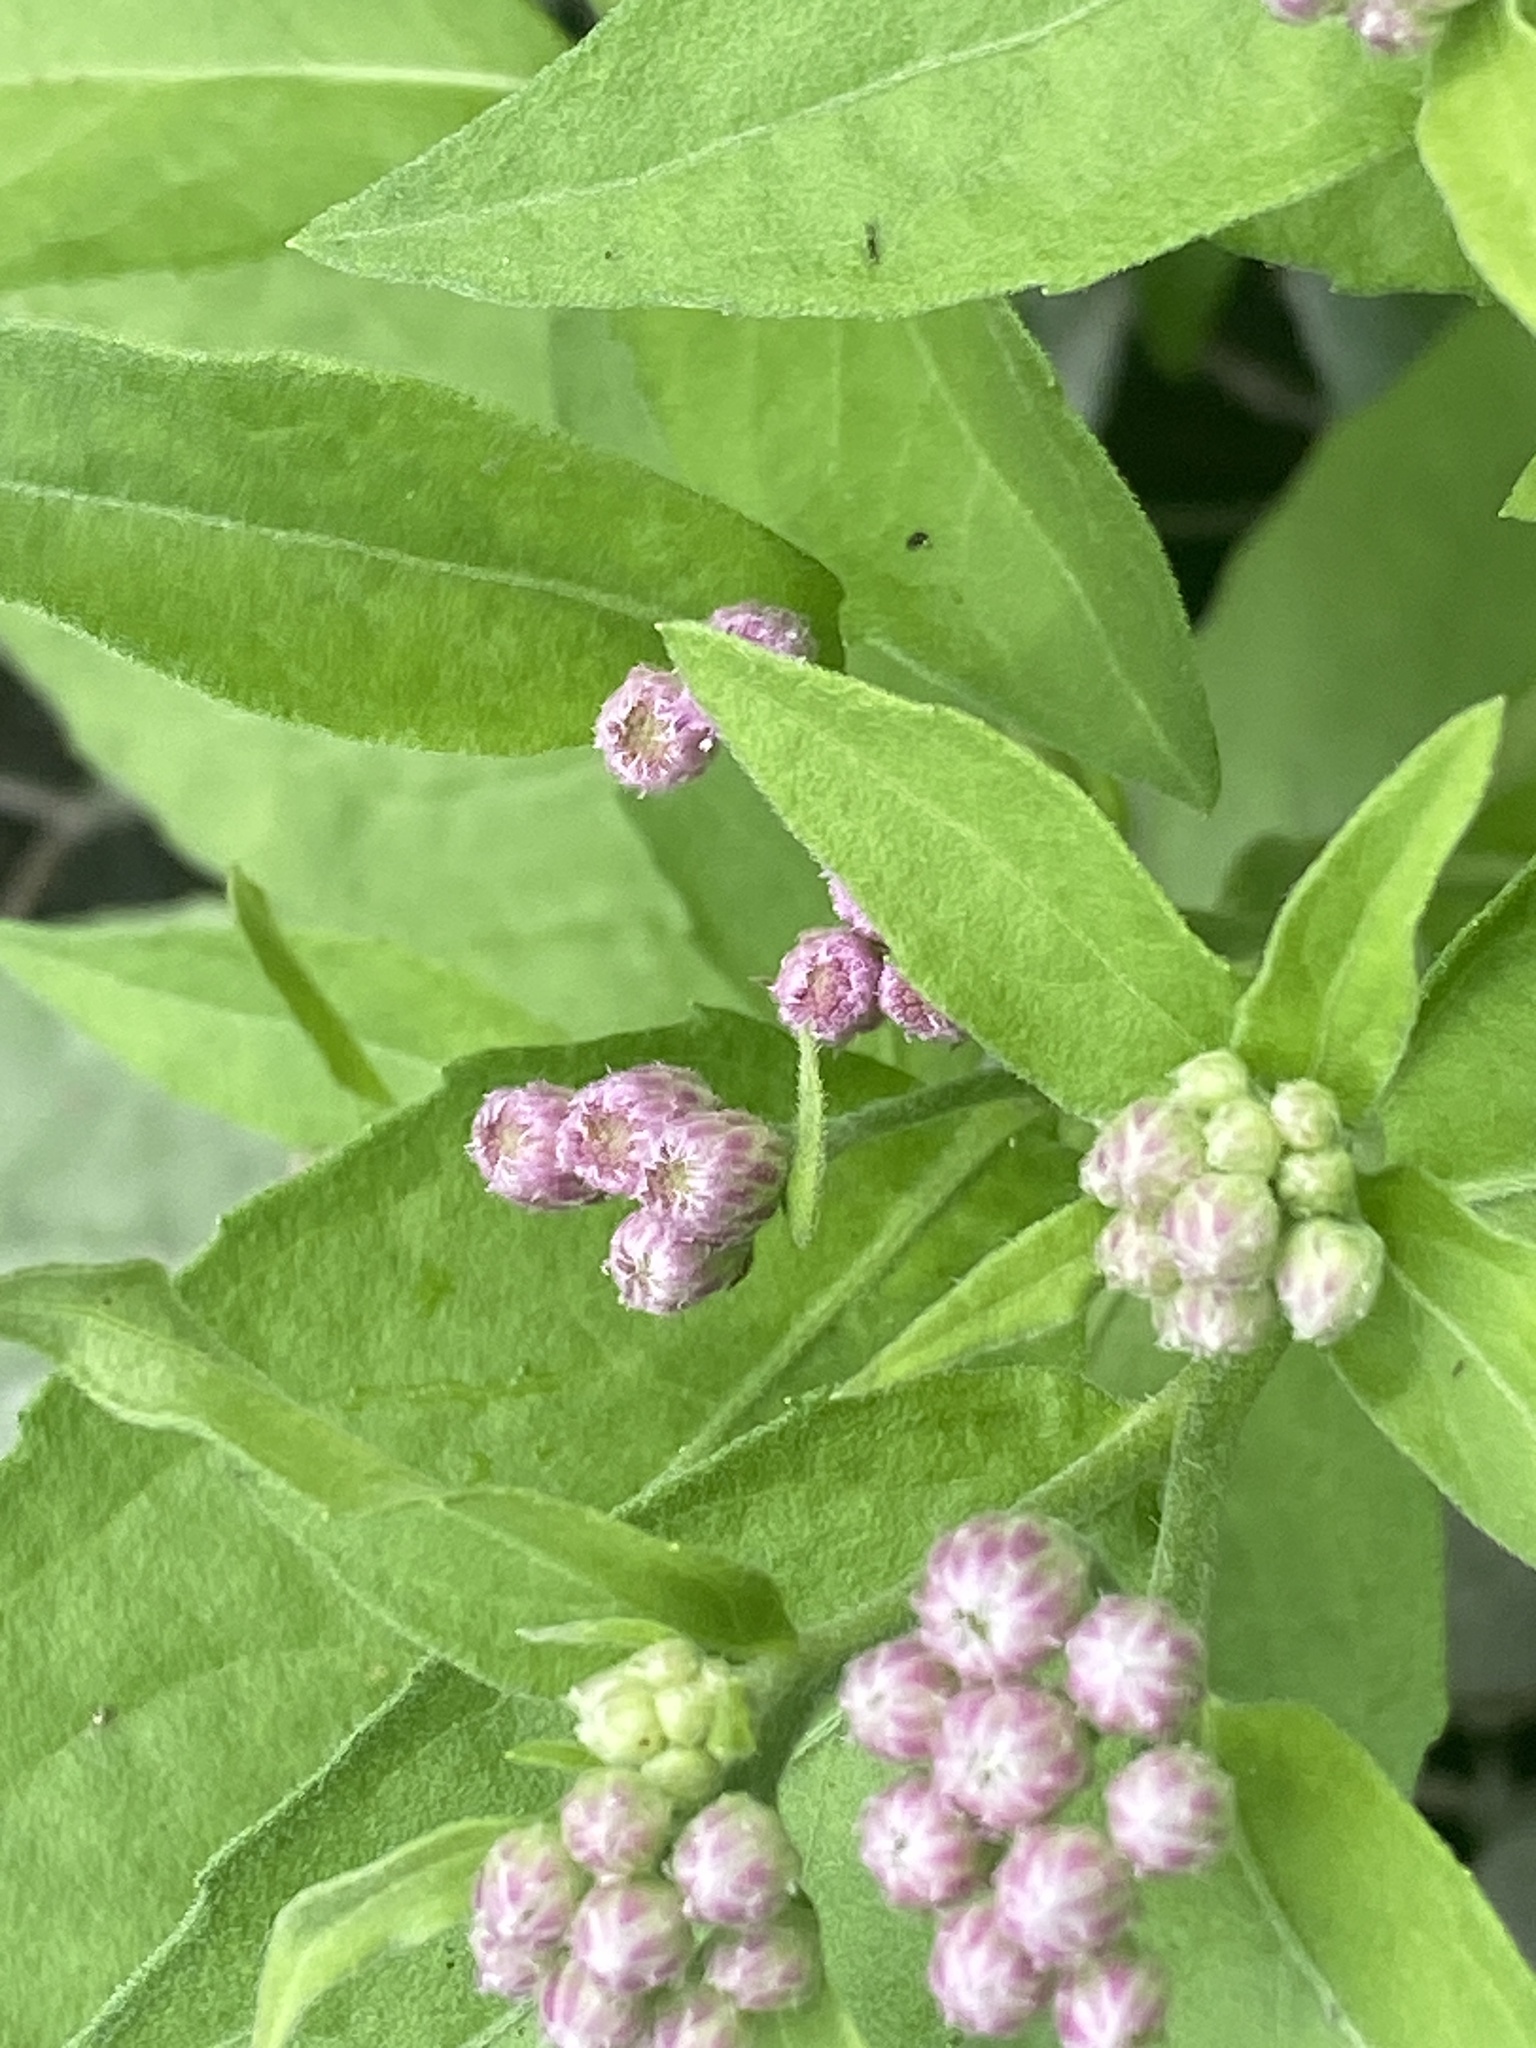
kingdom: Plantae
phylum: Tracheophyta
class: Magnoliopsida
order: Asterales
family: Asteraceae
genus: Pluchea
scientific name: Pluchea odorata
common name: Saltmarsh fleabane
